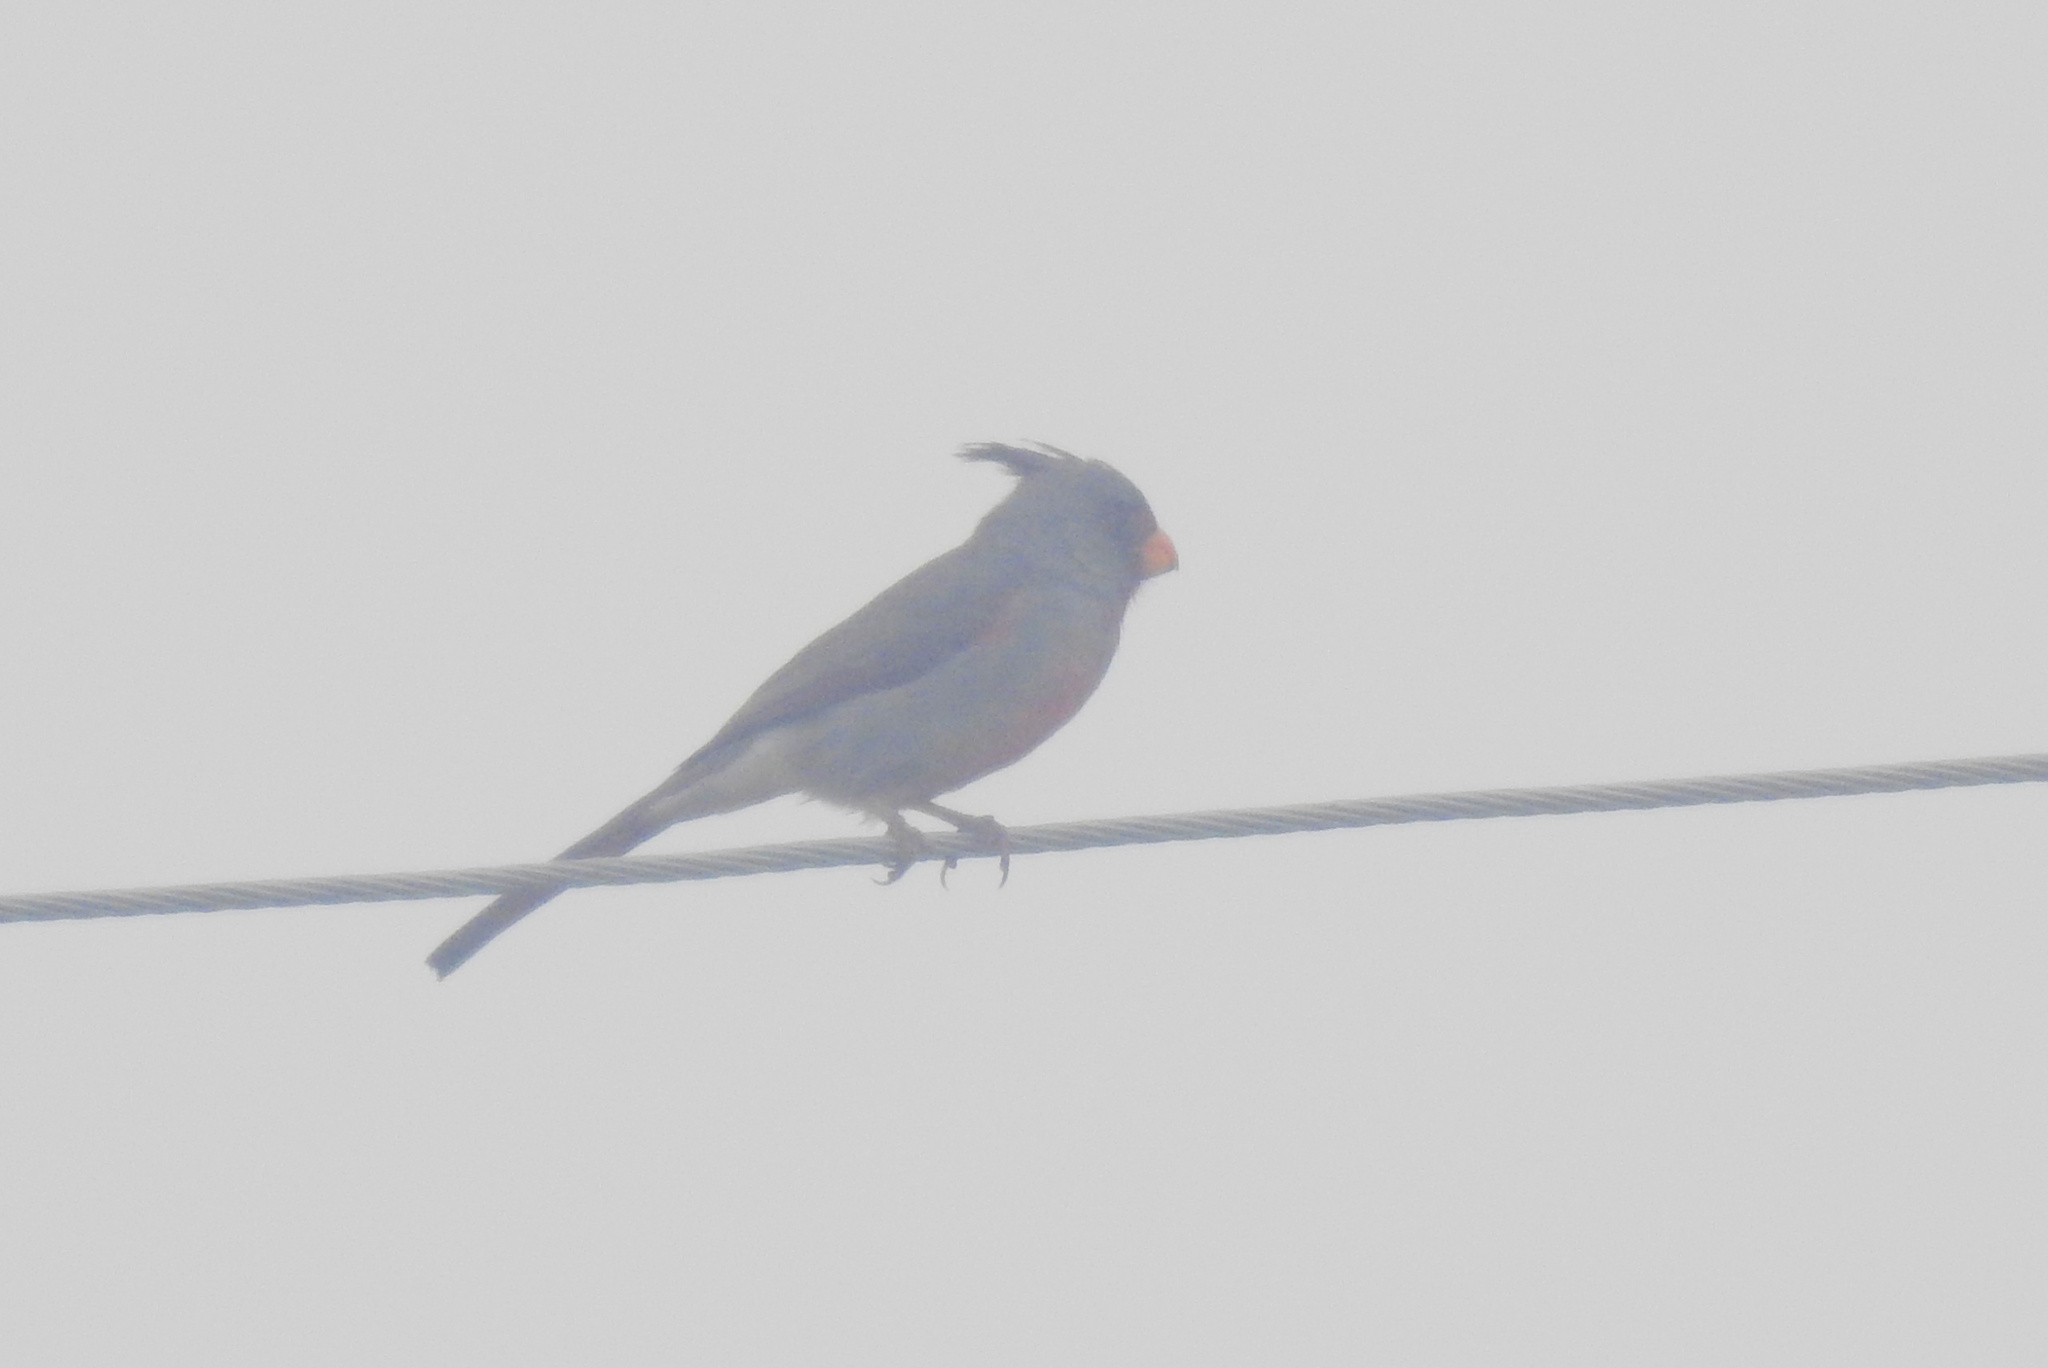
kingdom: Animalia
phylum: Chordata
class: Aves
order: Passeriformes
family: Cardinalidae
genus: Cardinalis
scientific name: Cardinalis sinuatus
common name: Pyrrhuloxia
